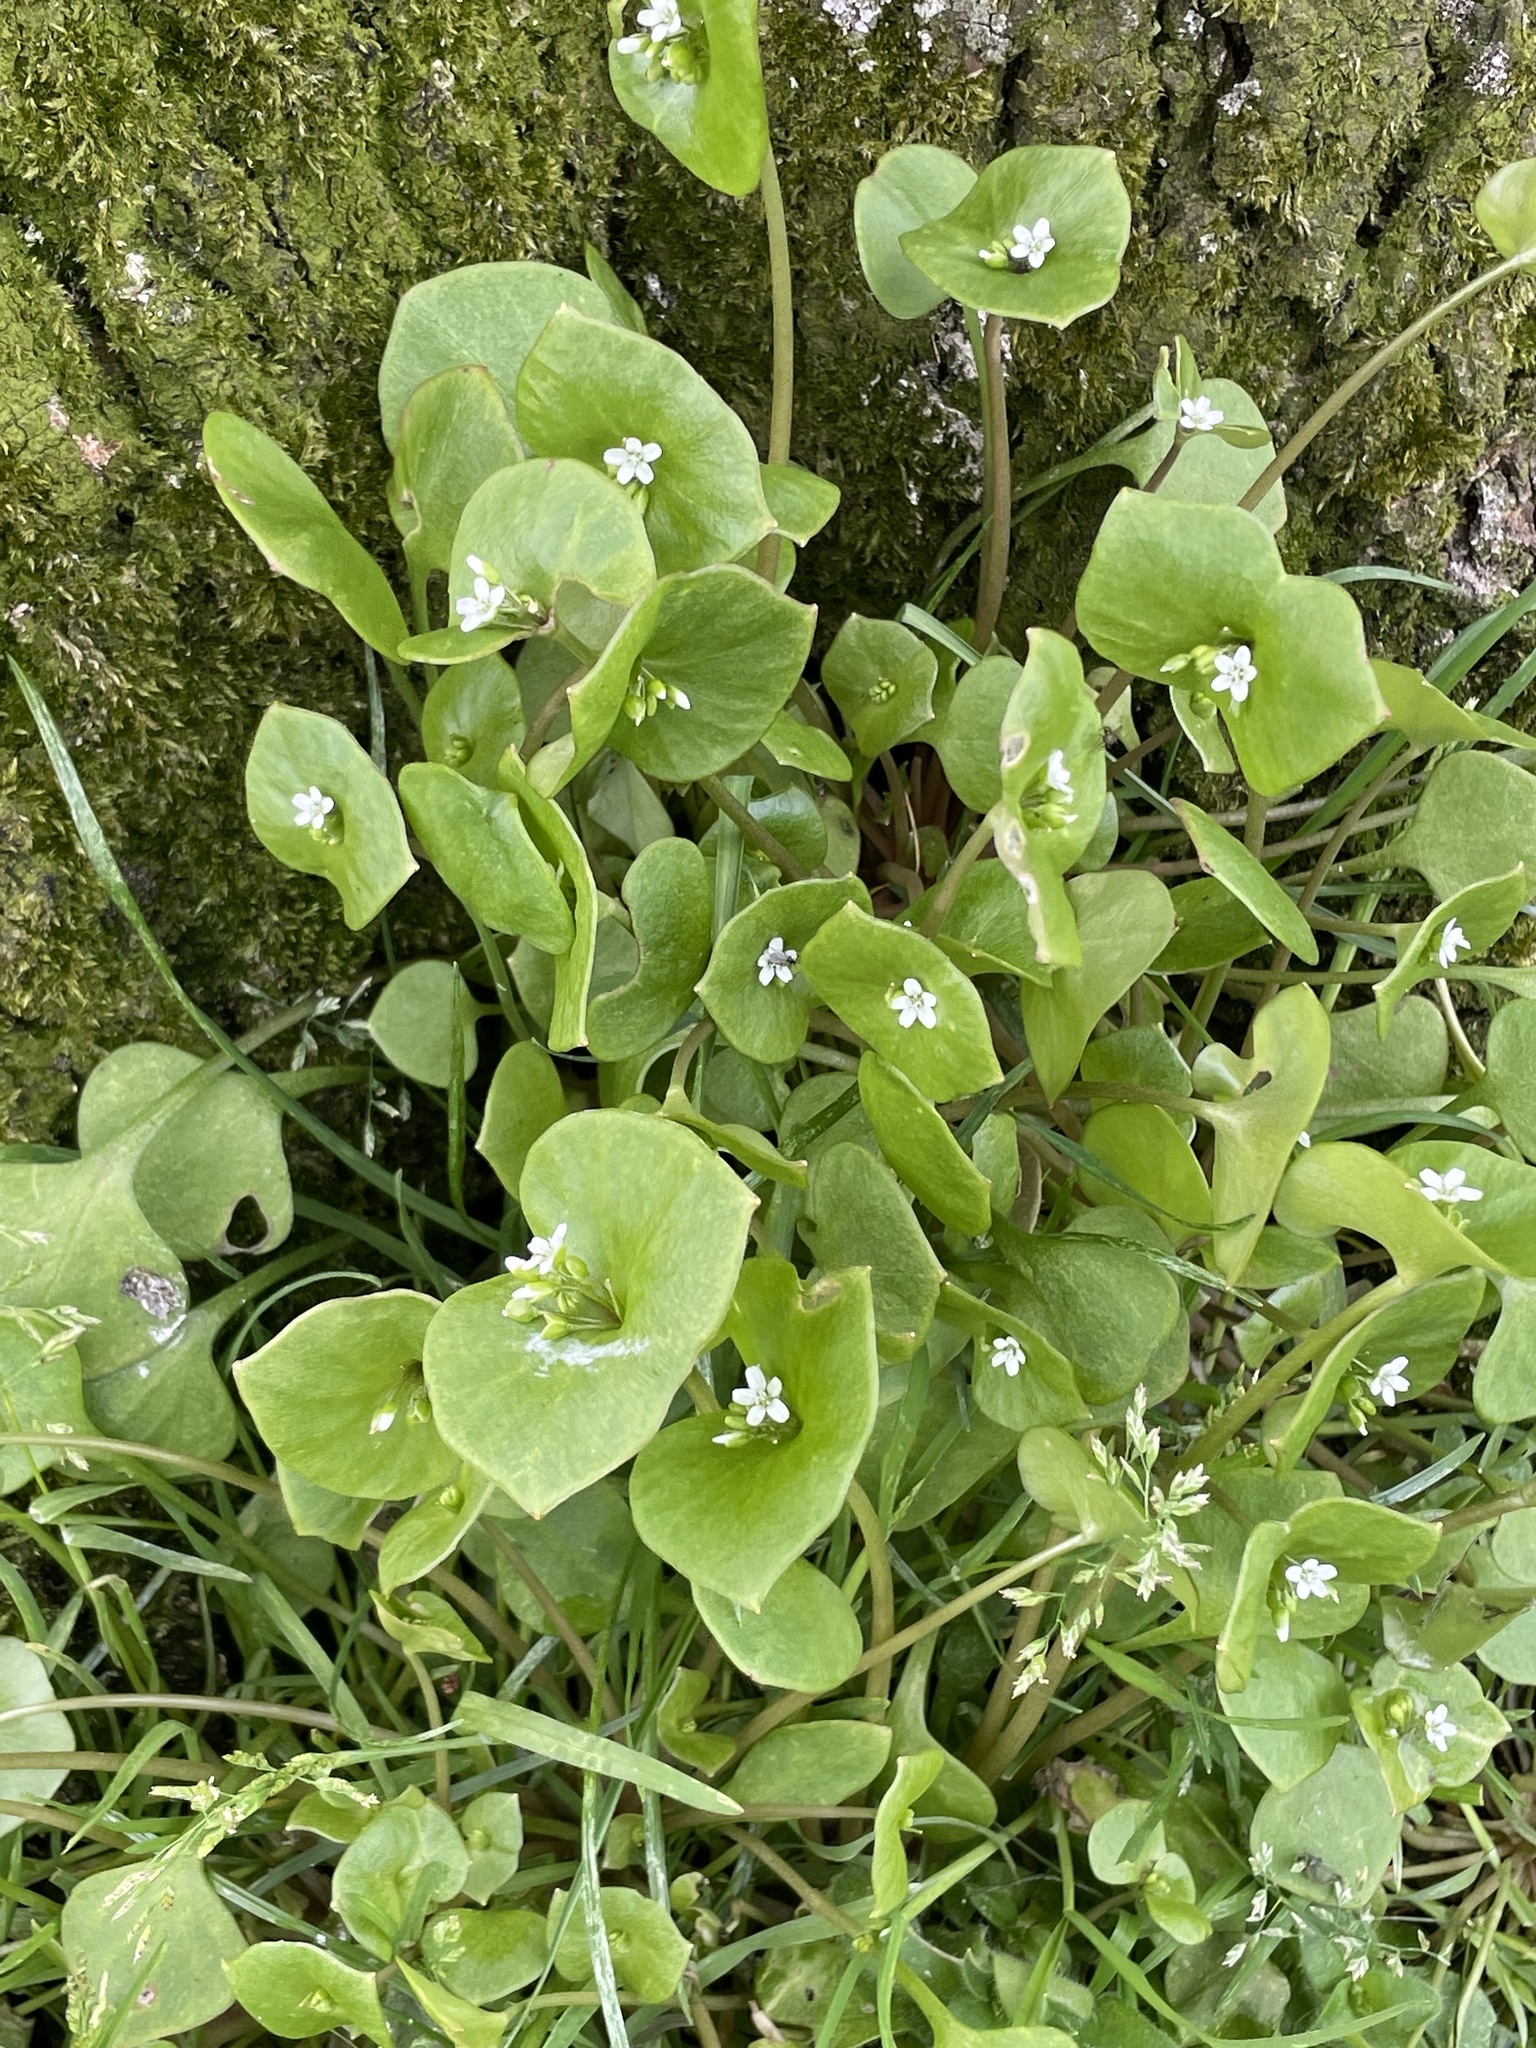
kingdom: Plantae
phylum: Tracheophyta
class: Magnoliopsida
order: Caryophyllales
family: Montiaceae
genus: Claytonia
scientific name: Claytonia perfoliata
